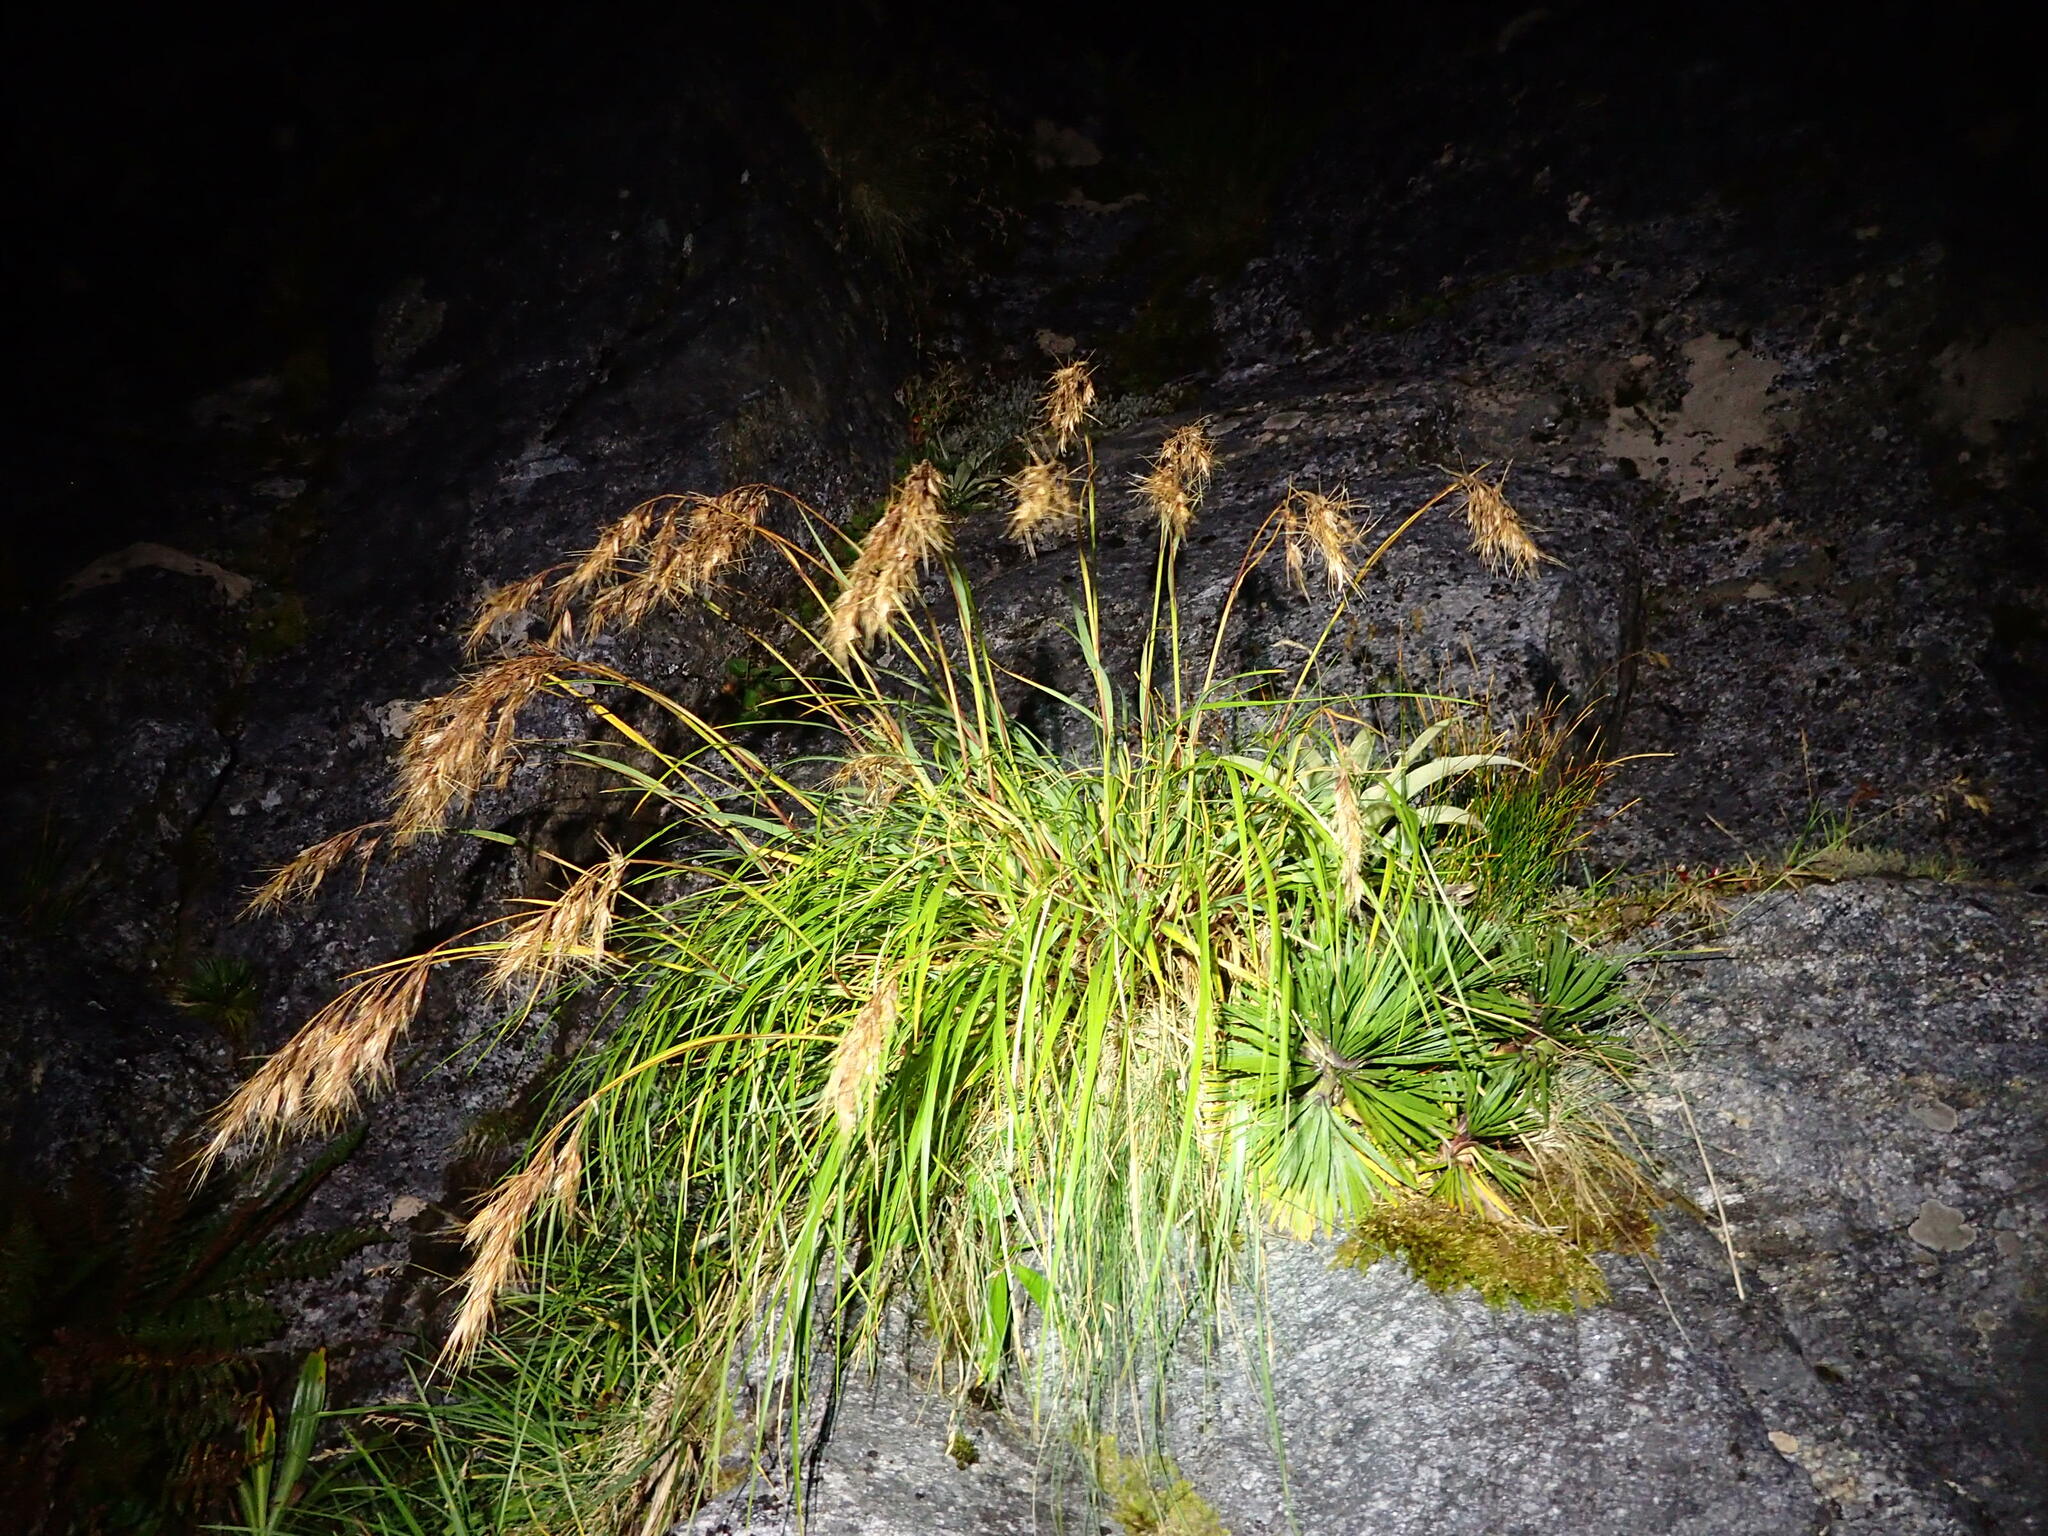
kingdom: Plantae
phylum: Tracheophyta
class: Liliopsida
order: Poales
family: Poaceae
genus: Chionochloa
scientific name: Chionochloa ovata
